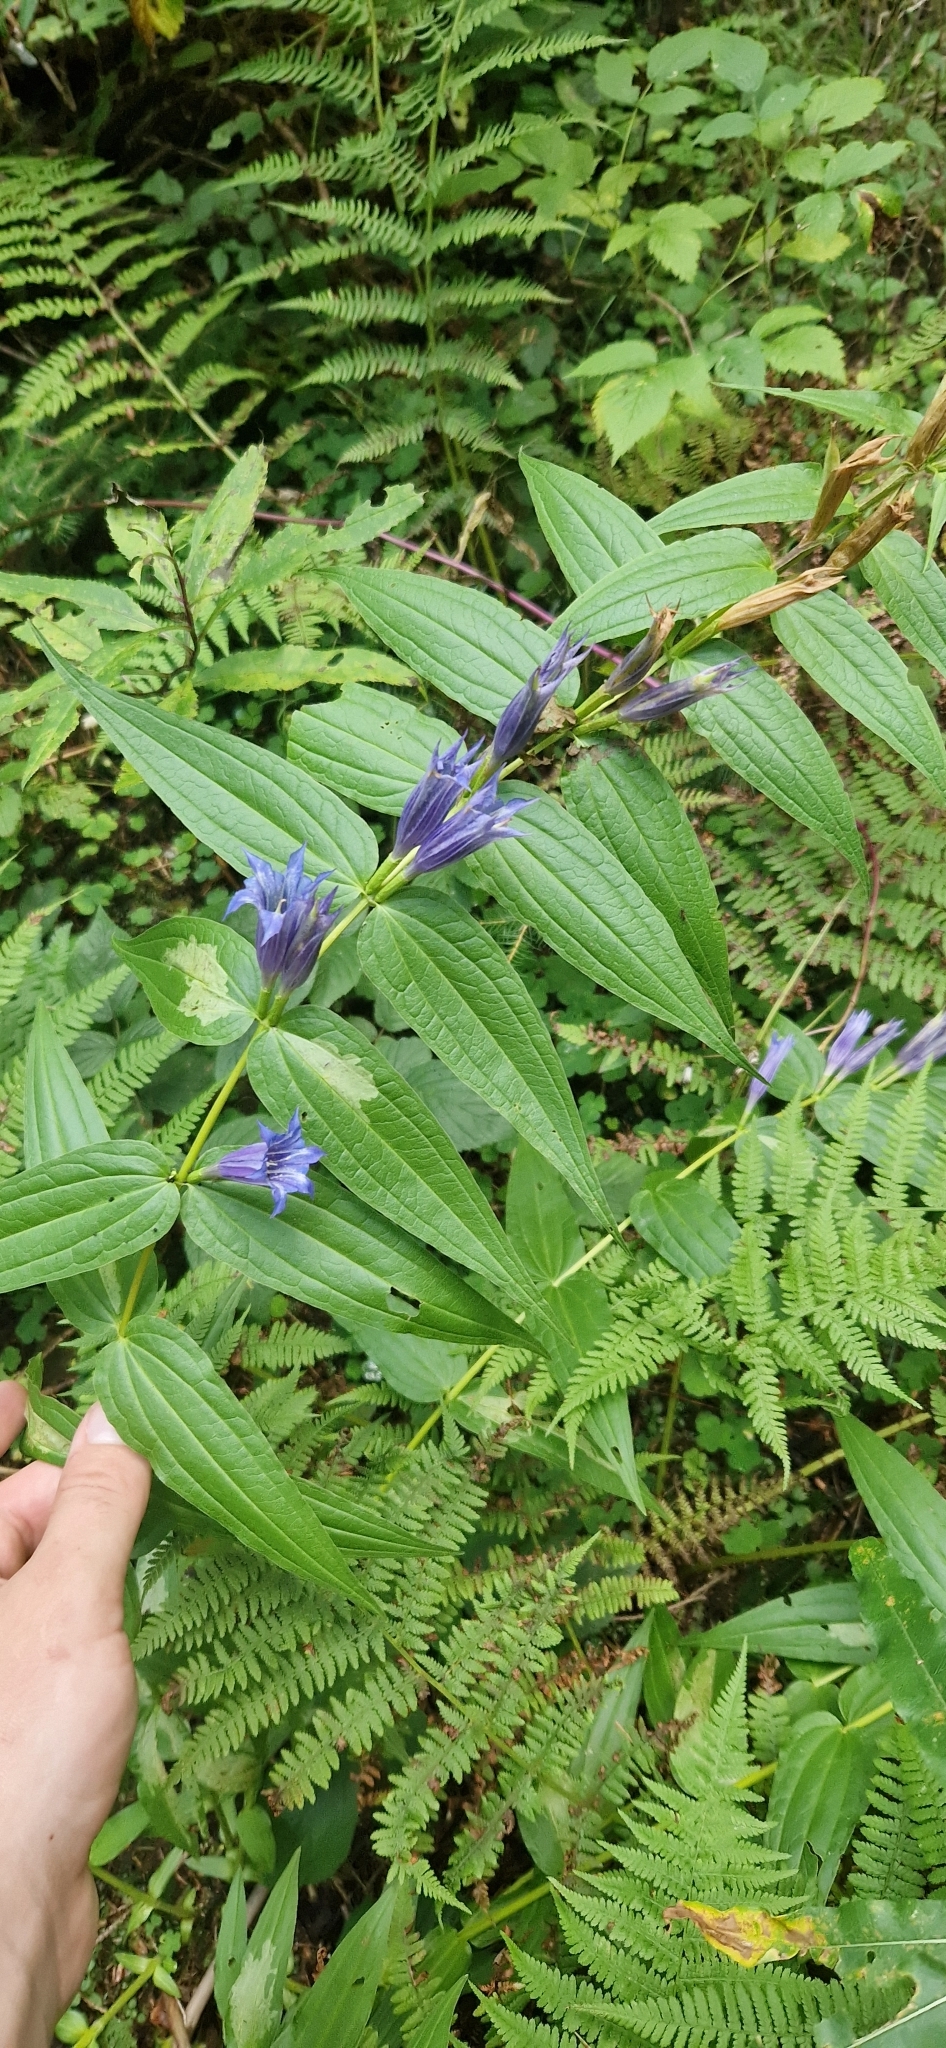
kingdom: Plantae
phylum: Tracheophyta
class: Magnoliopsida
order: Gentianales
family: Gentianaceae
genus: Gentiana
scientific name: Gentiana asclepiadea
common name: Willow gentian
